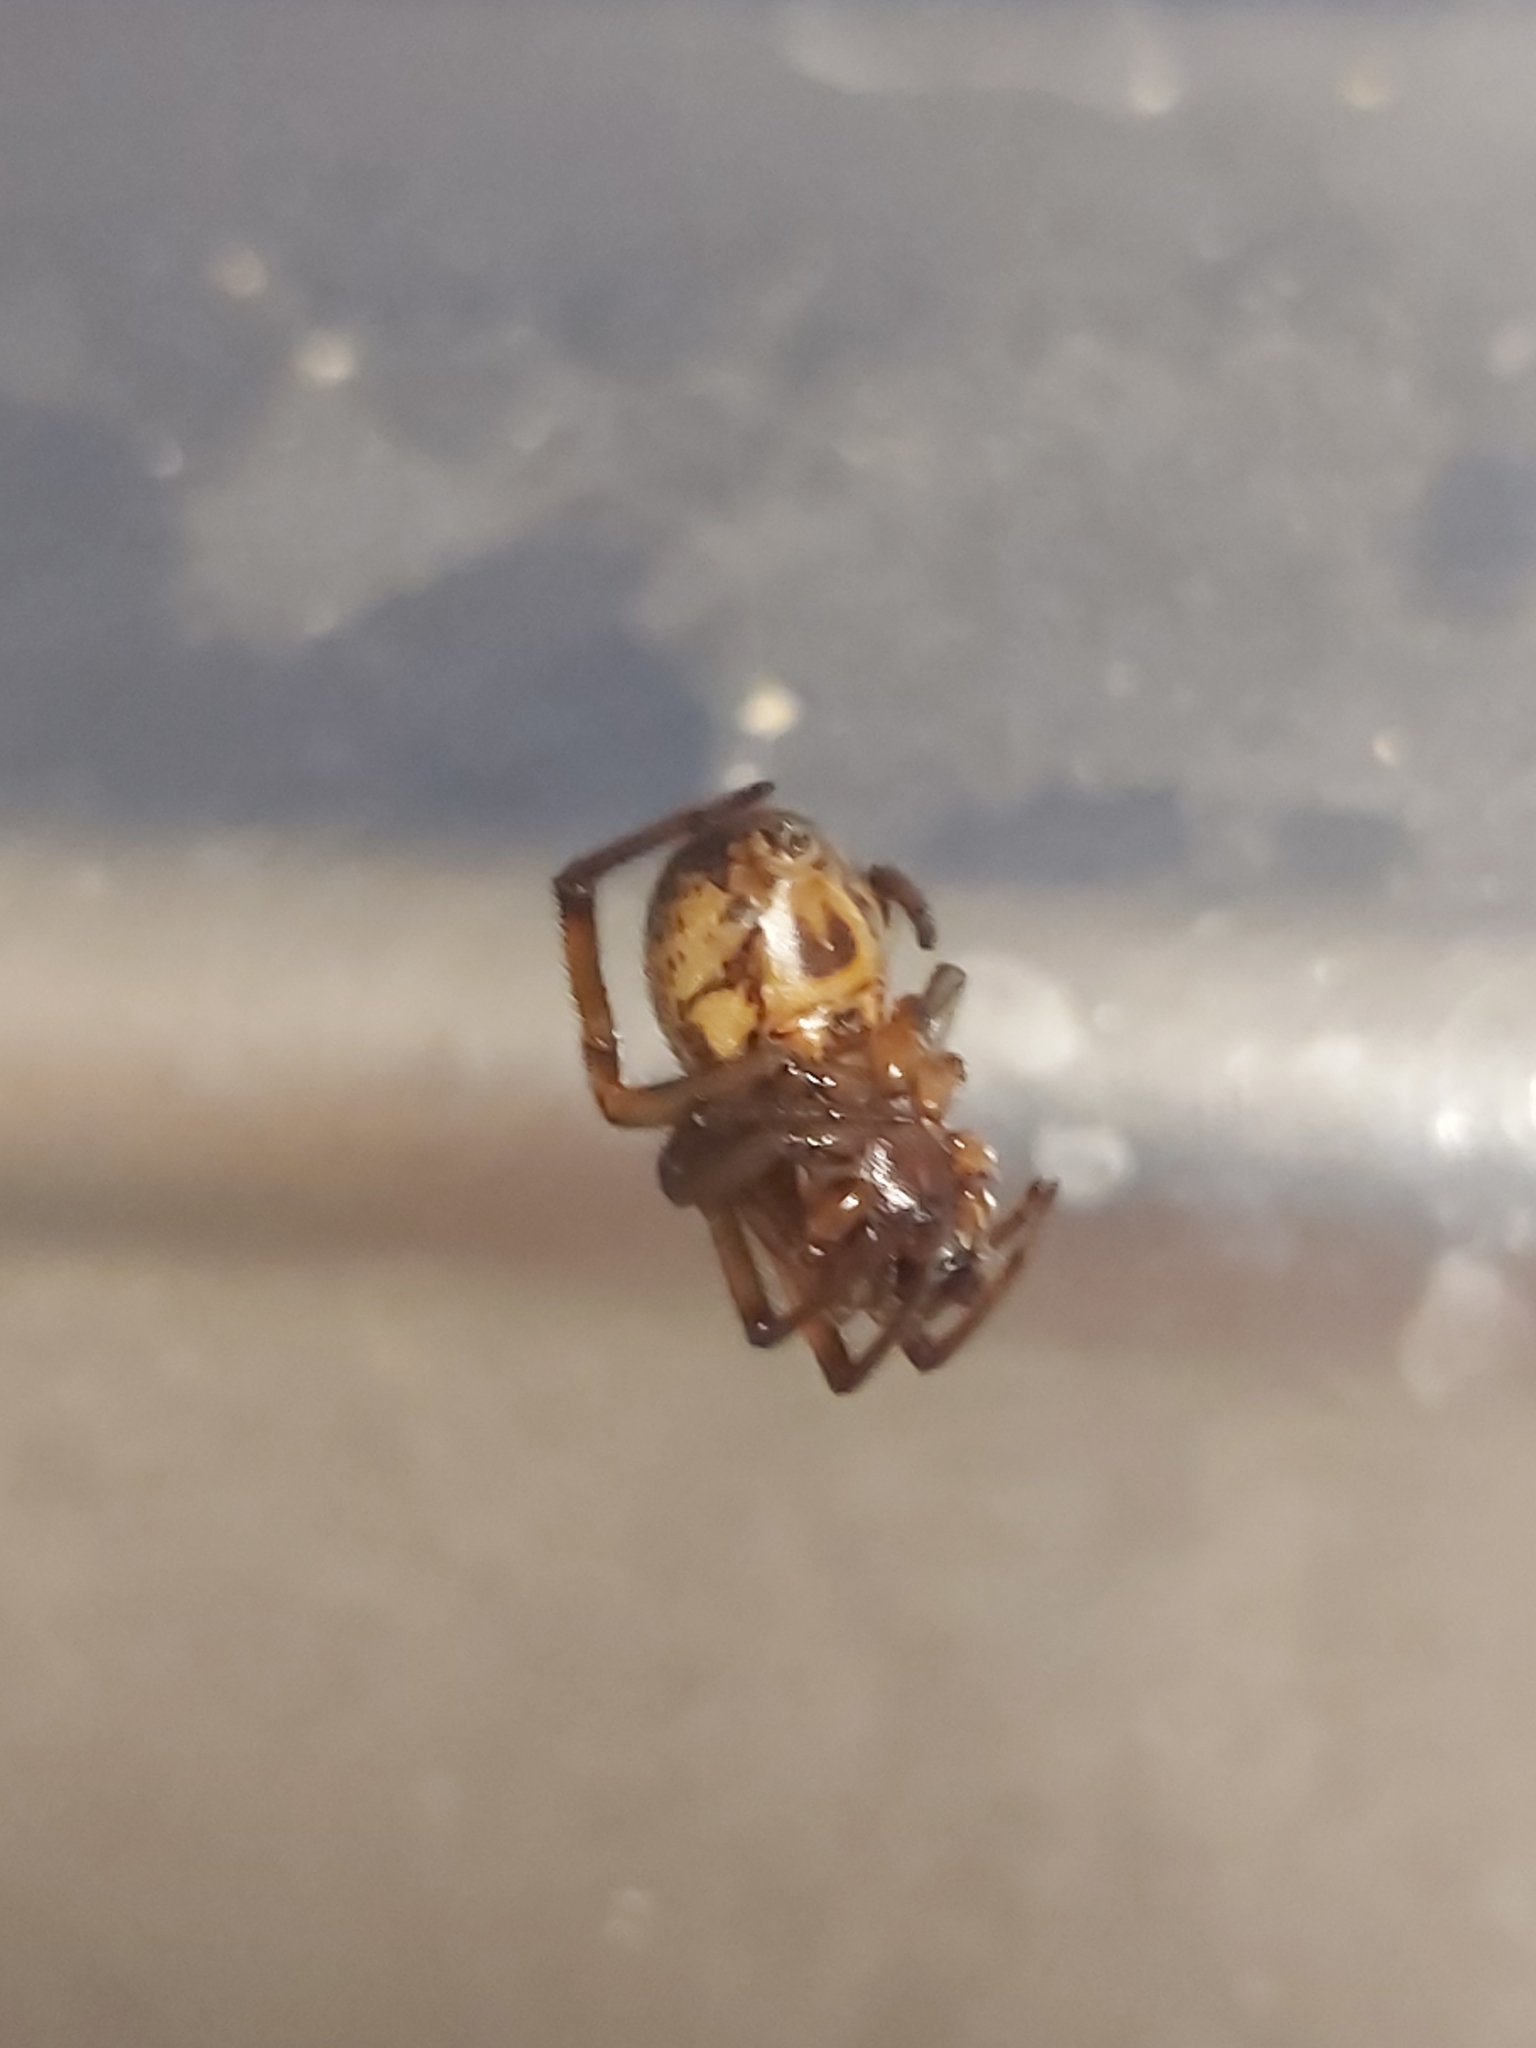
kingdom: Animalia
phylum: Arthropoda
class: Arachnida
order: Araneae
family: Theridiidae
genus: Steatoda
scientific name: Steatoda nobilis
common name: Cobweb weaver
